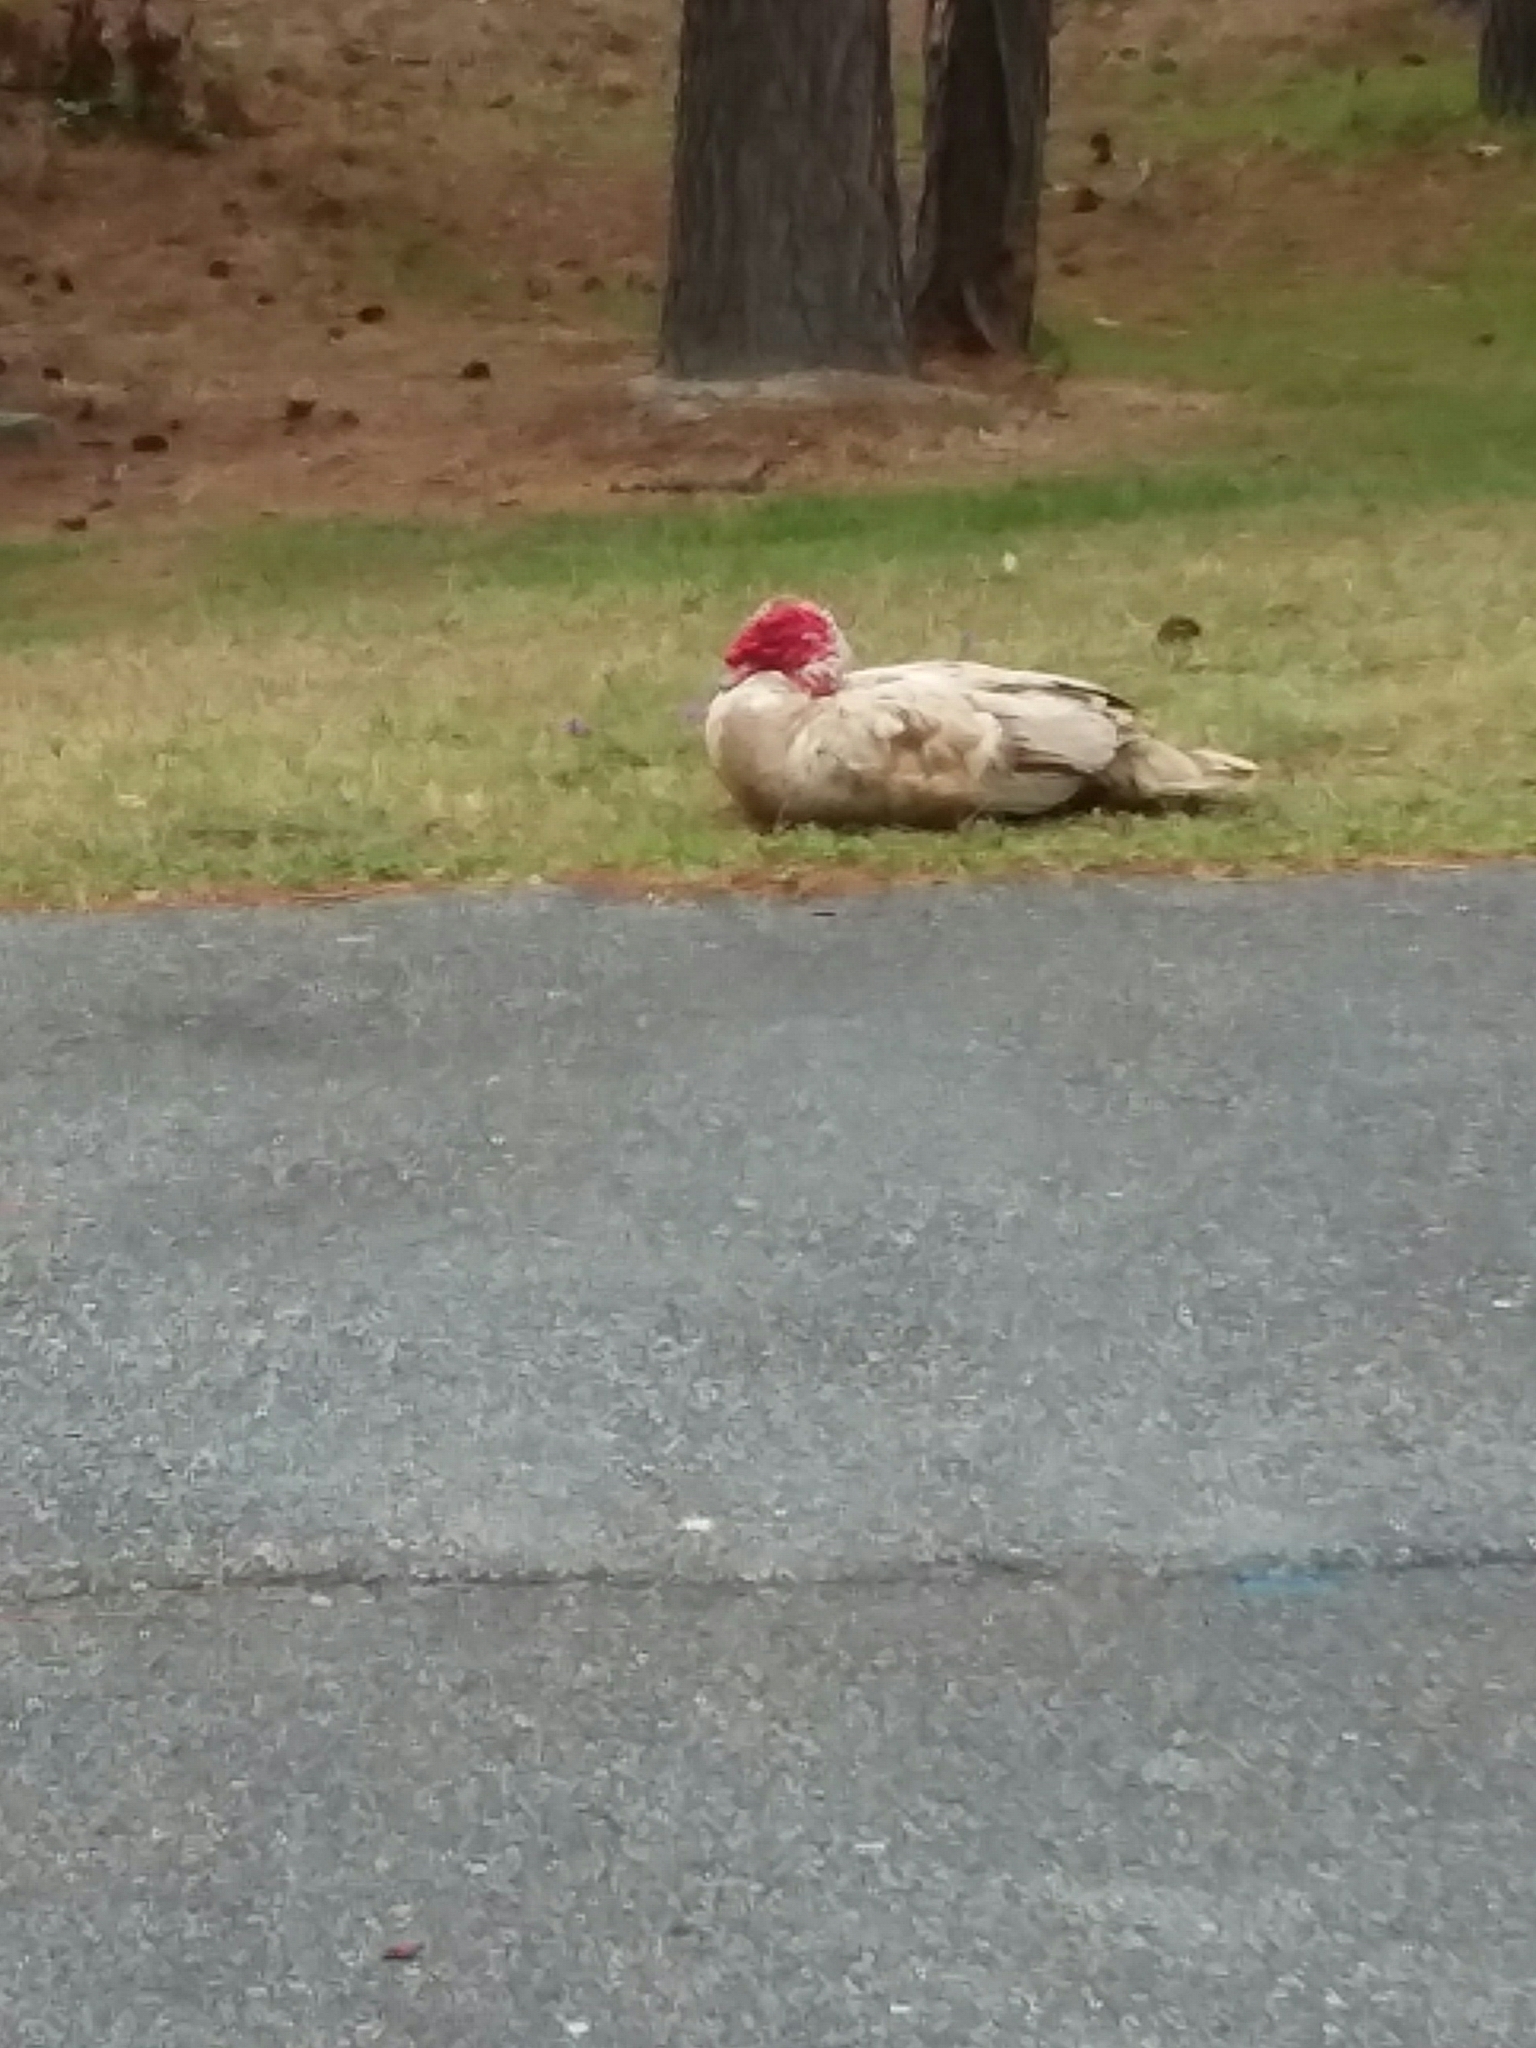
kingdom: Animalia
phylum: Chordata
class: Aves
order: Anseriformes
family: Anatidae
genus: Cairina
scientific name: Cairina moschata
